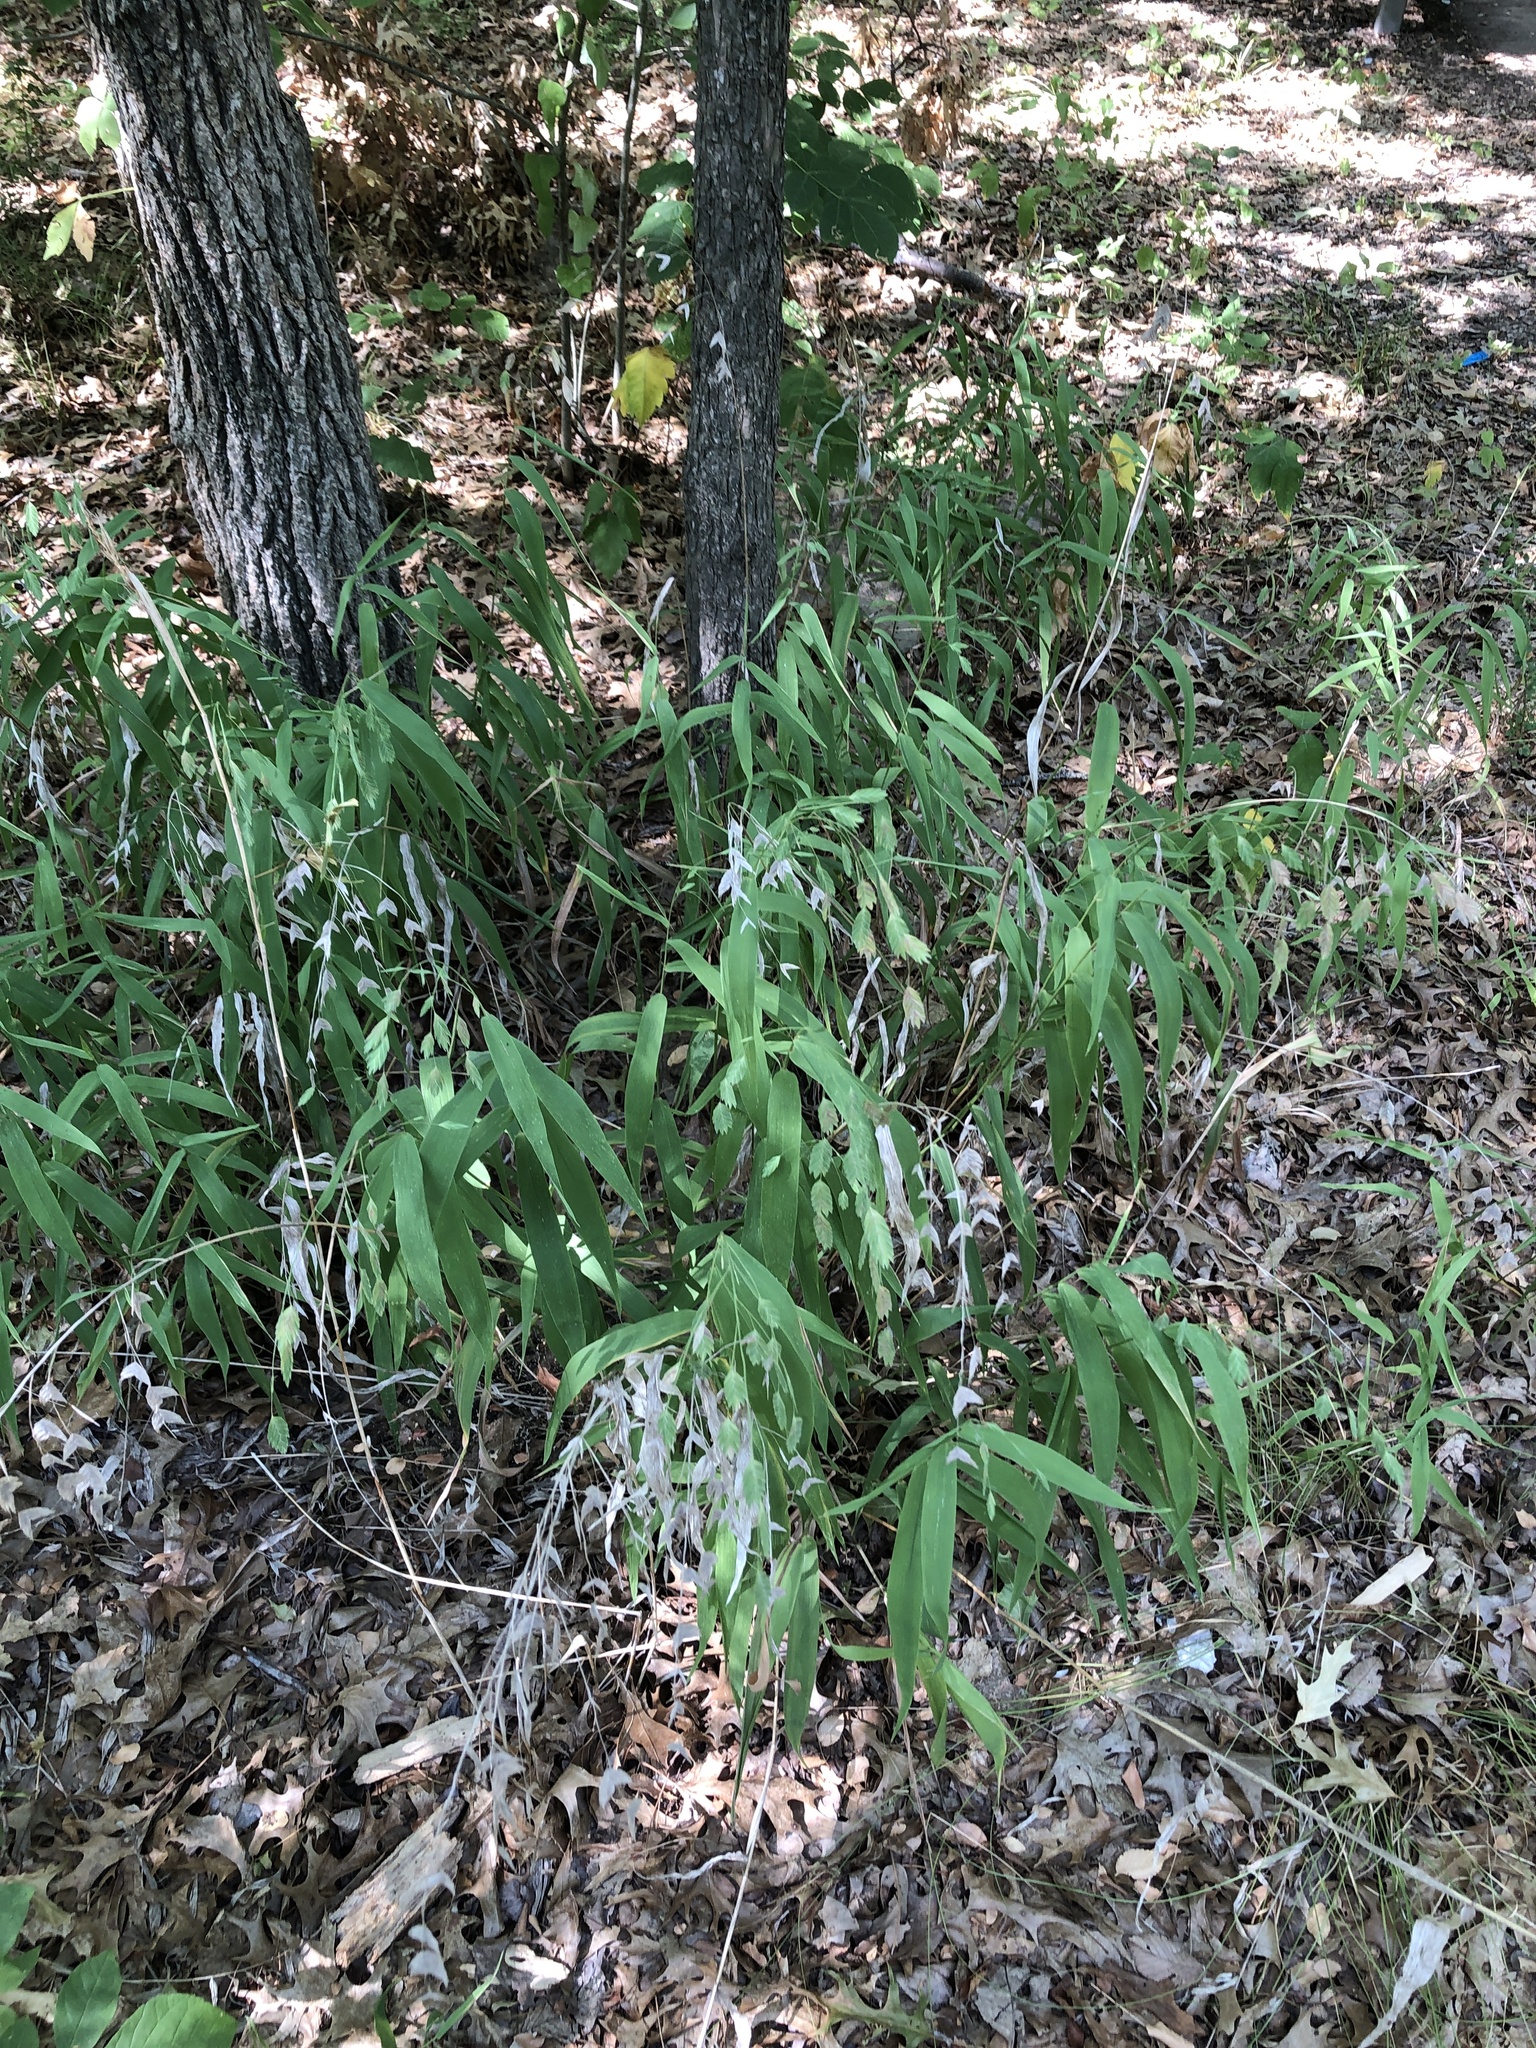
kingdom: Plantae
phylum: Tracheophyta
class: Liliopsida
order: Poales
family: Poaceae
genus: Chasmanthium
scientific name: Chasmanthium latifolium
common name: Broad-leaved chasmanthium
